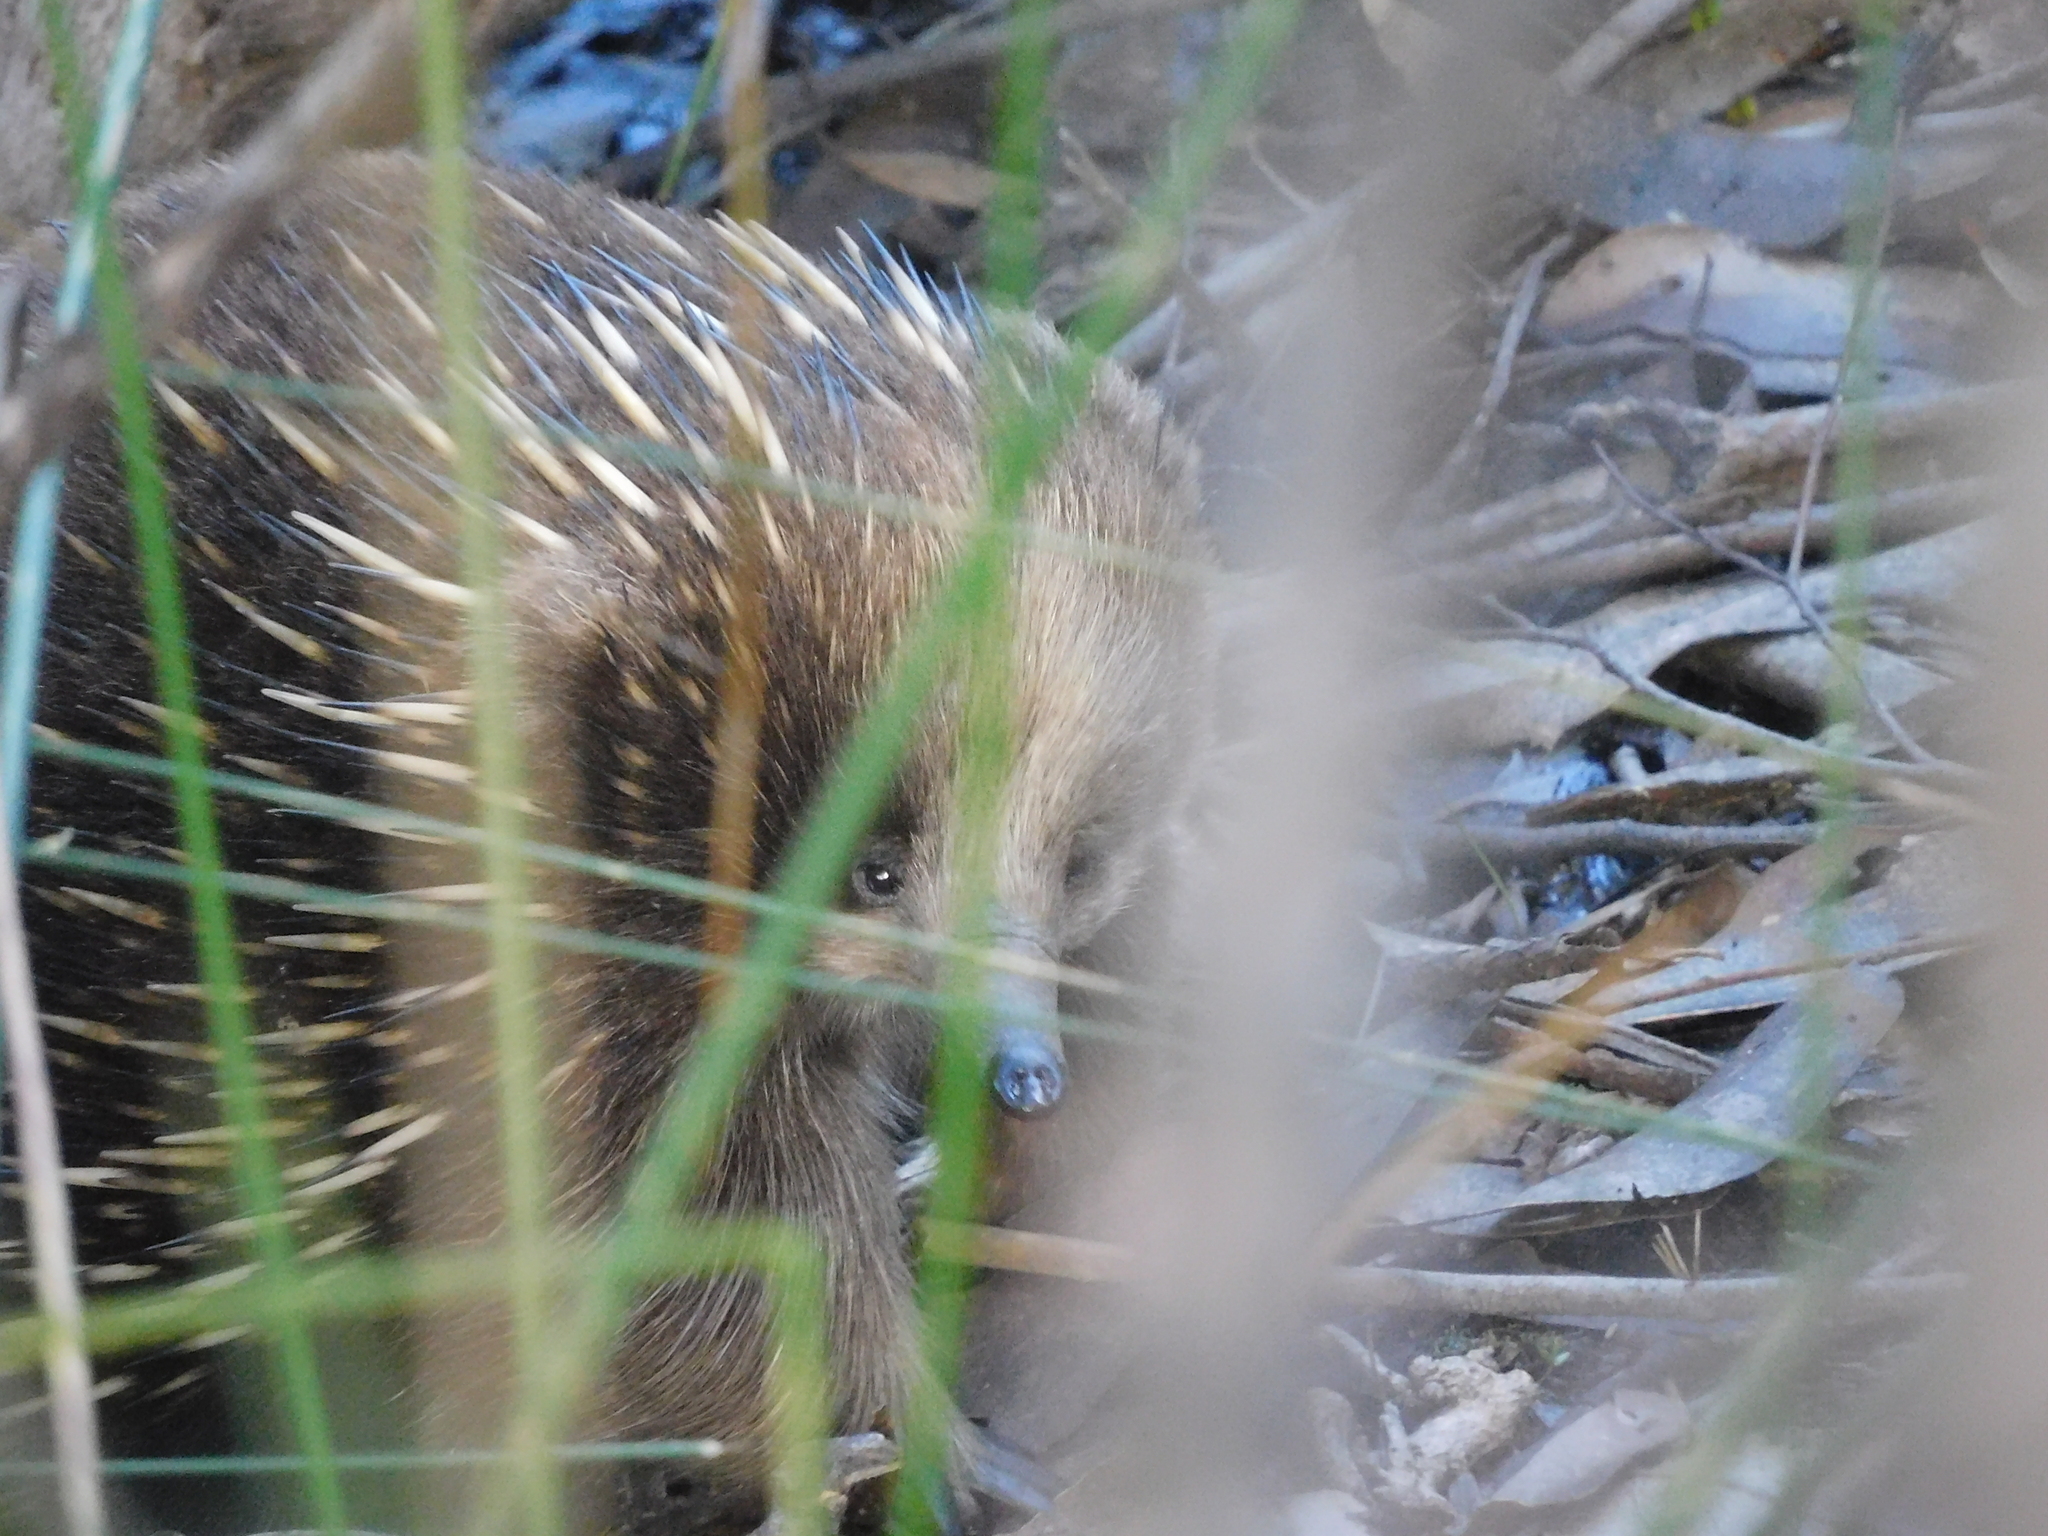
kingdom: Animalia
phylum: Chordata
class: Mammalia
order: Monotremata
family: Tachyglossidae
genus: Tachyglossus
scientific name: Tachyglossus aculeatus
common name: Short-beaked echidna
